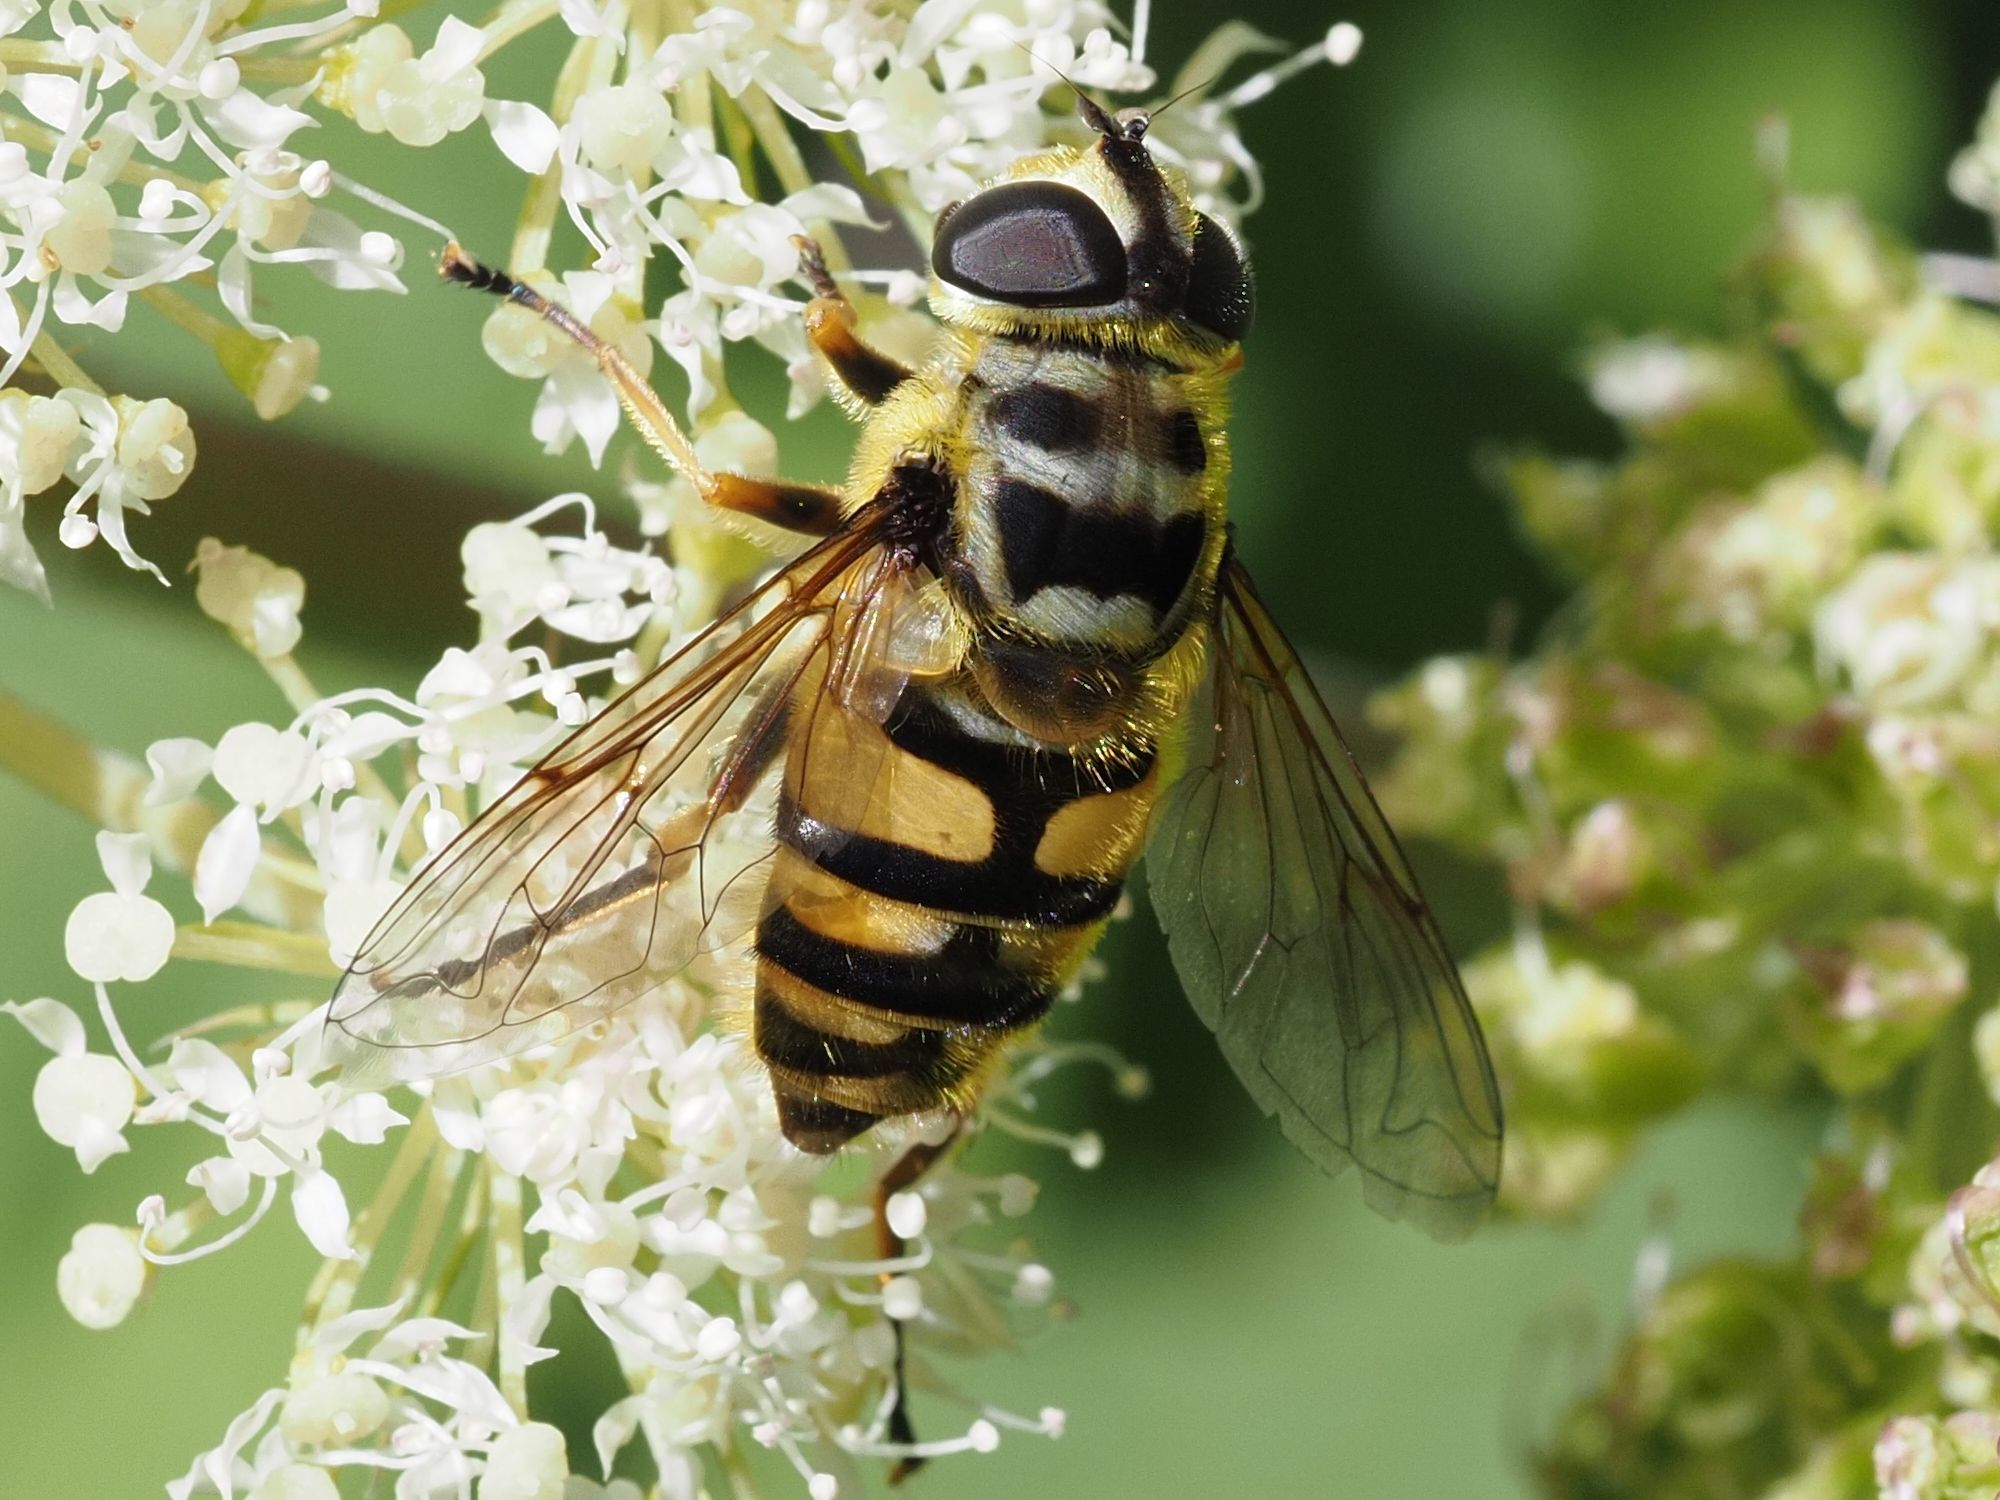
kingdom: Animalia
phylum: Arthropoda
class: Insecta
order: Diptera
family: Syrphidae
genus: Myathropa
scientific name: Myathropa florea
